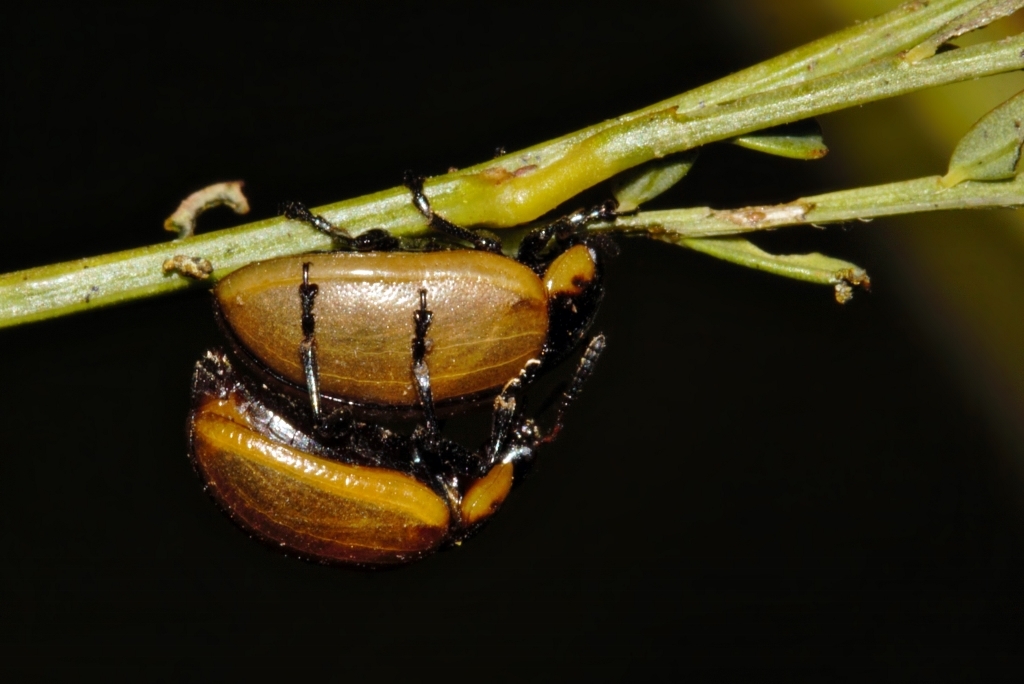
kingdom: Animalia
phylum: Arthropoda
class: Insecta
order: Coleoptera
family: Chrysomelidae
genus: Mesoplatys
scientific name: Mesoplatys
